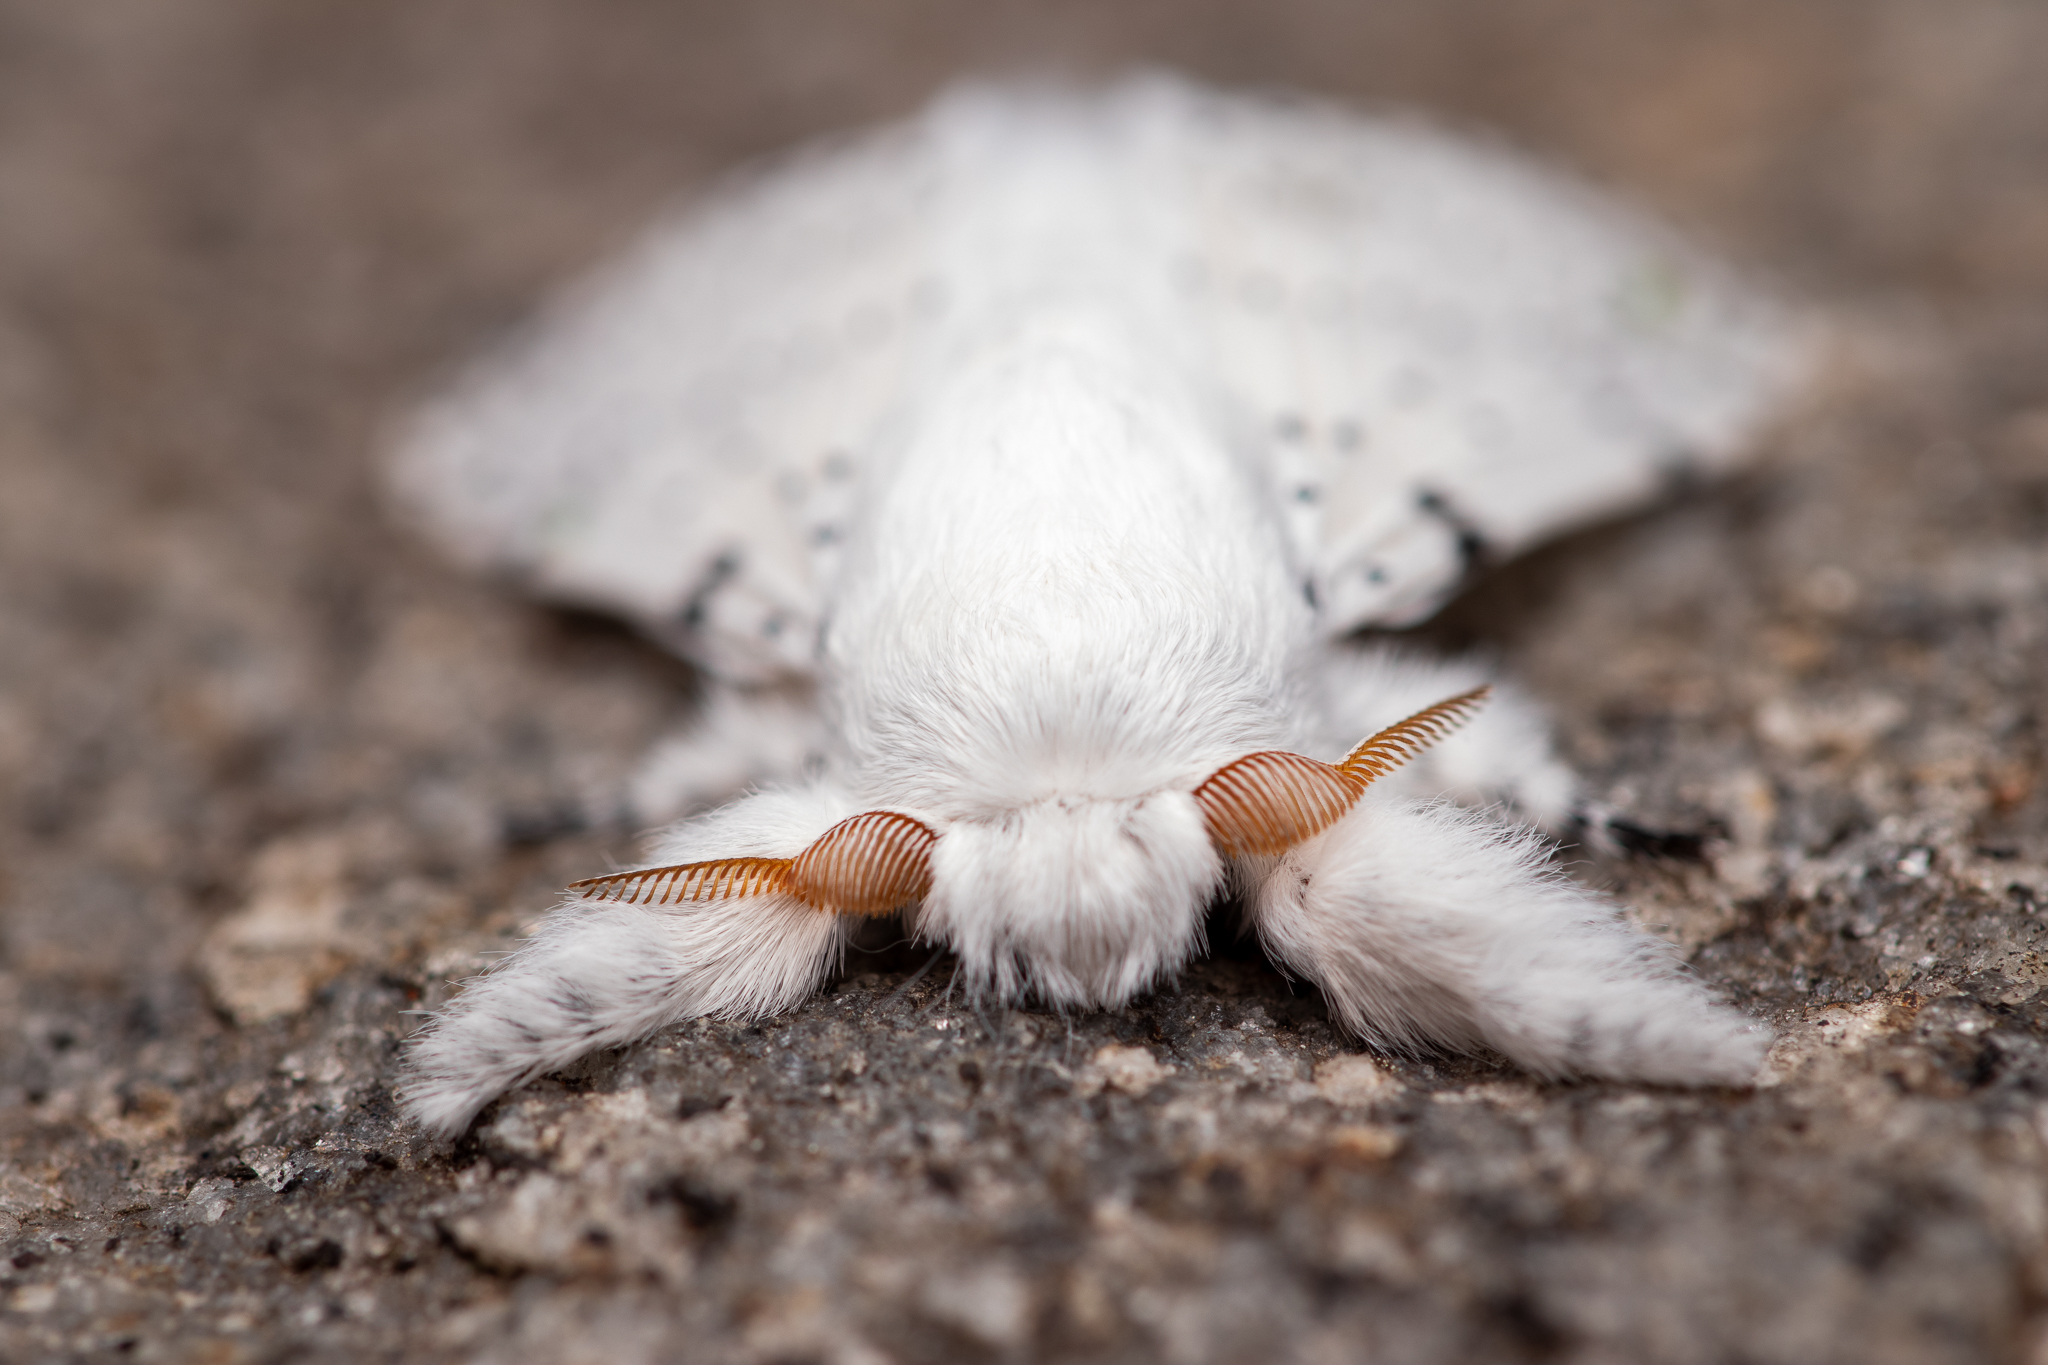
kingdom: Animalia
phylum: Arthropoda
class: Insecta
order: Lepidoptera
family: Lasiocampidae
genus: Artace
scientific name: Artace cribrarius
